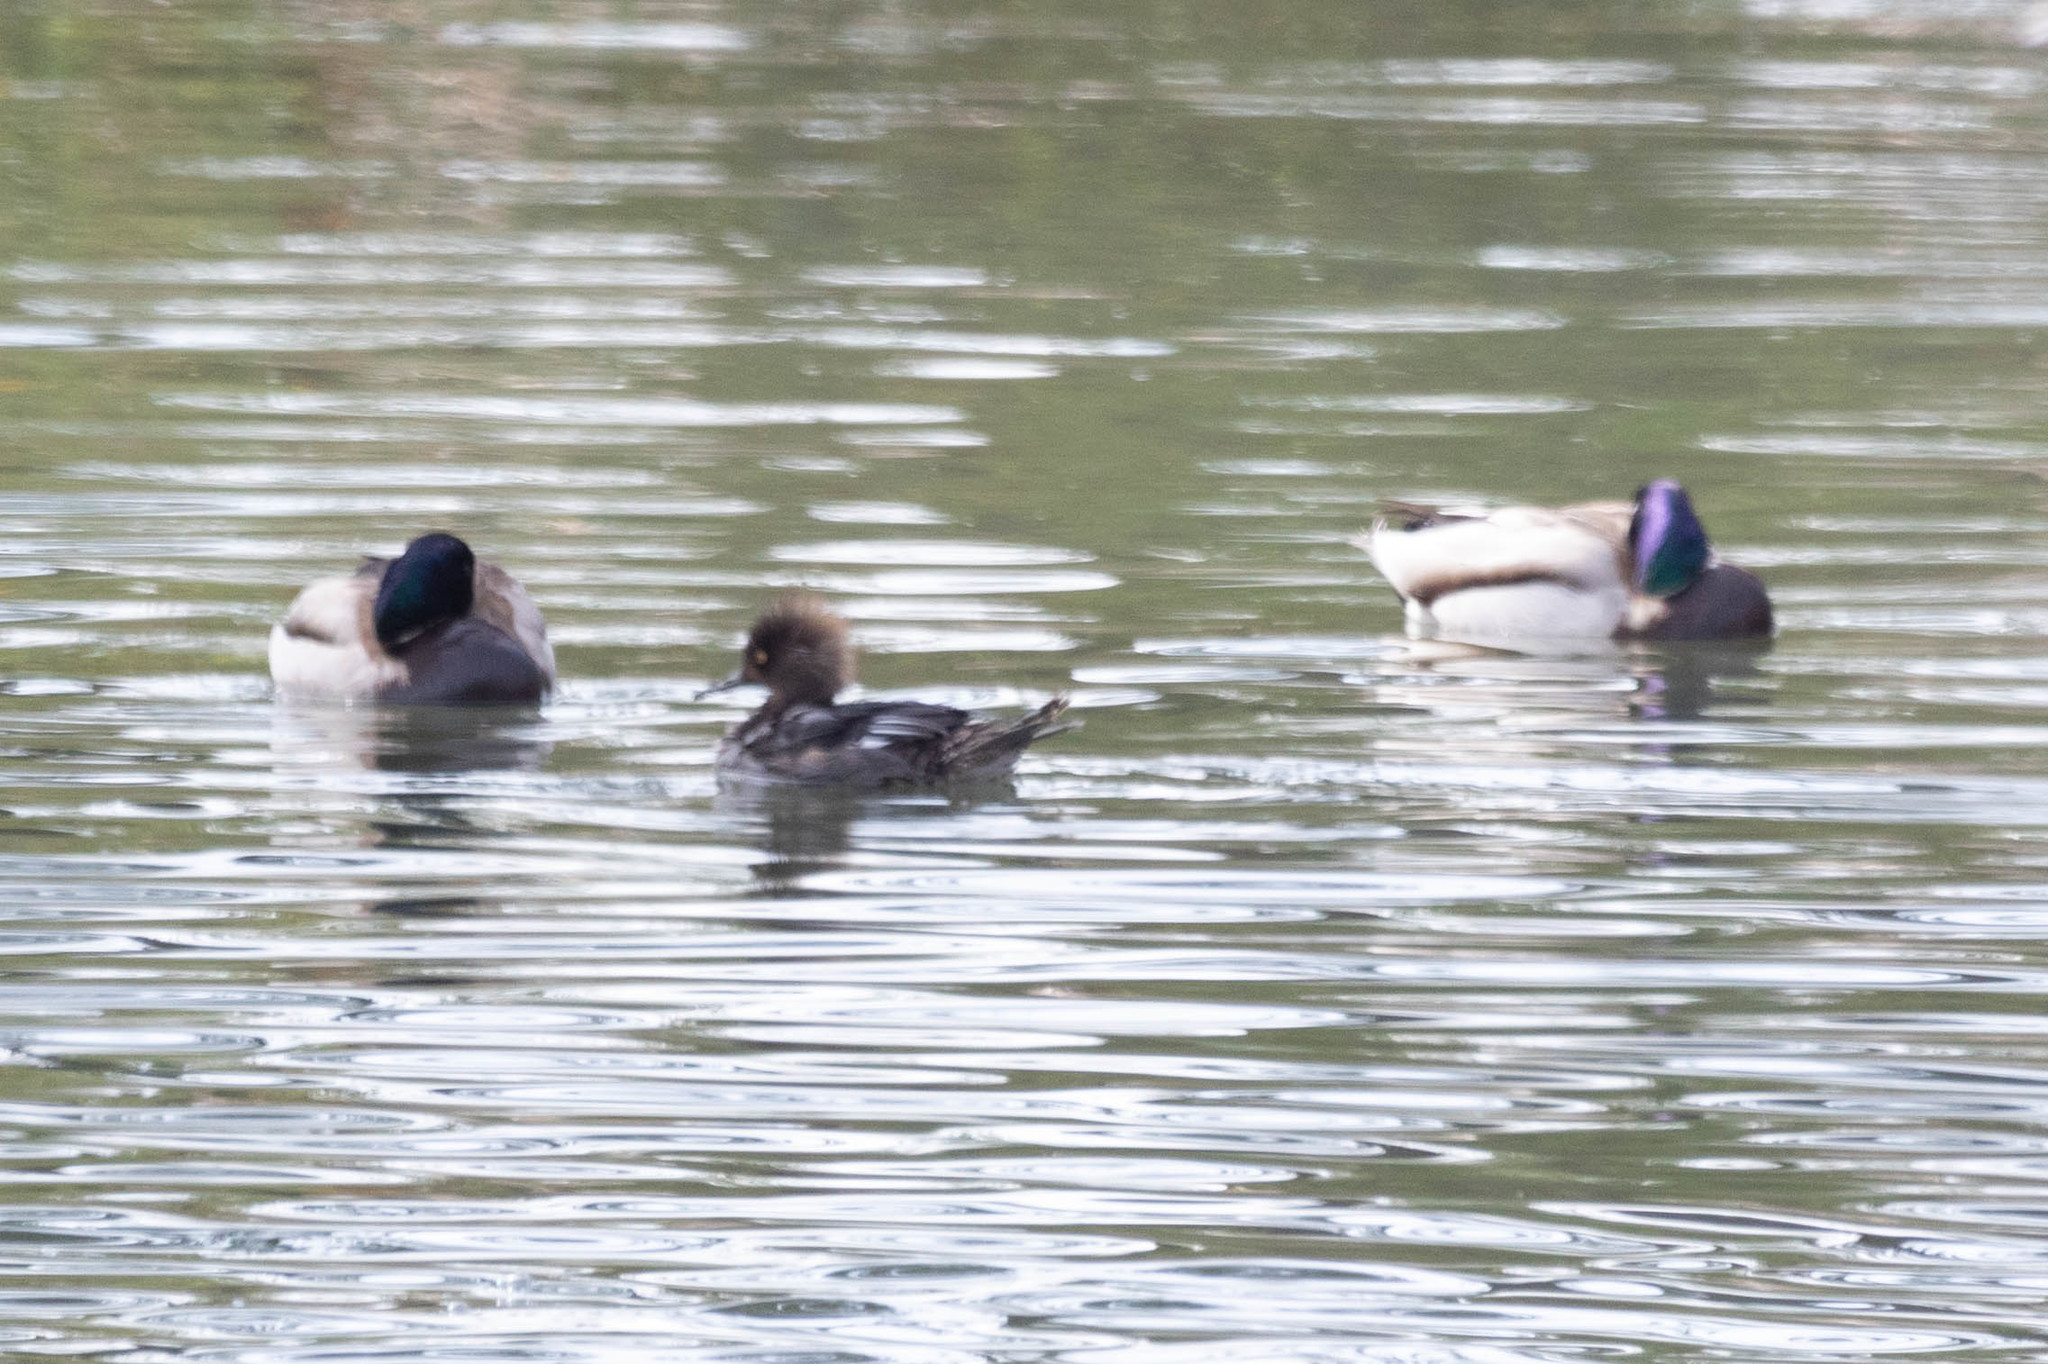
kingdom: Animalia
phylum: Chordata
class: Aves
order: Anseriformes
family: Anatidae
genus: Lophodytes
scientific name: Lophodytes cucullatus
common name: Hooded merganser
